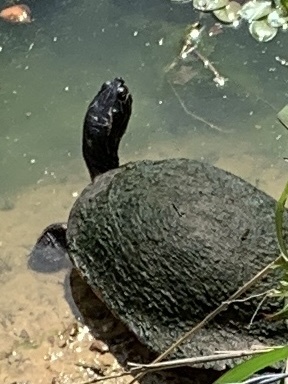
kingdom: Animalia
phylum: Chordata
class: Testudines
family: Emydidae
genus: Pseudemys
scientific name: Pseudemys concinna
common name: Eastern river cooter
